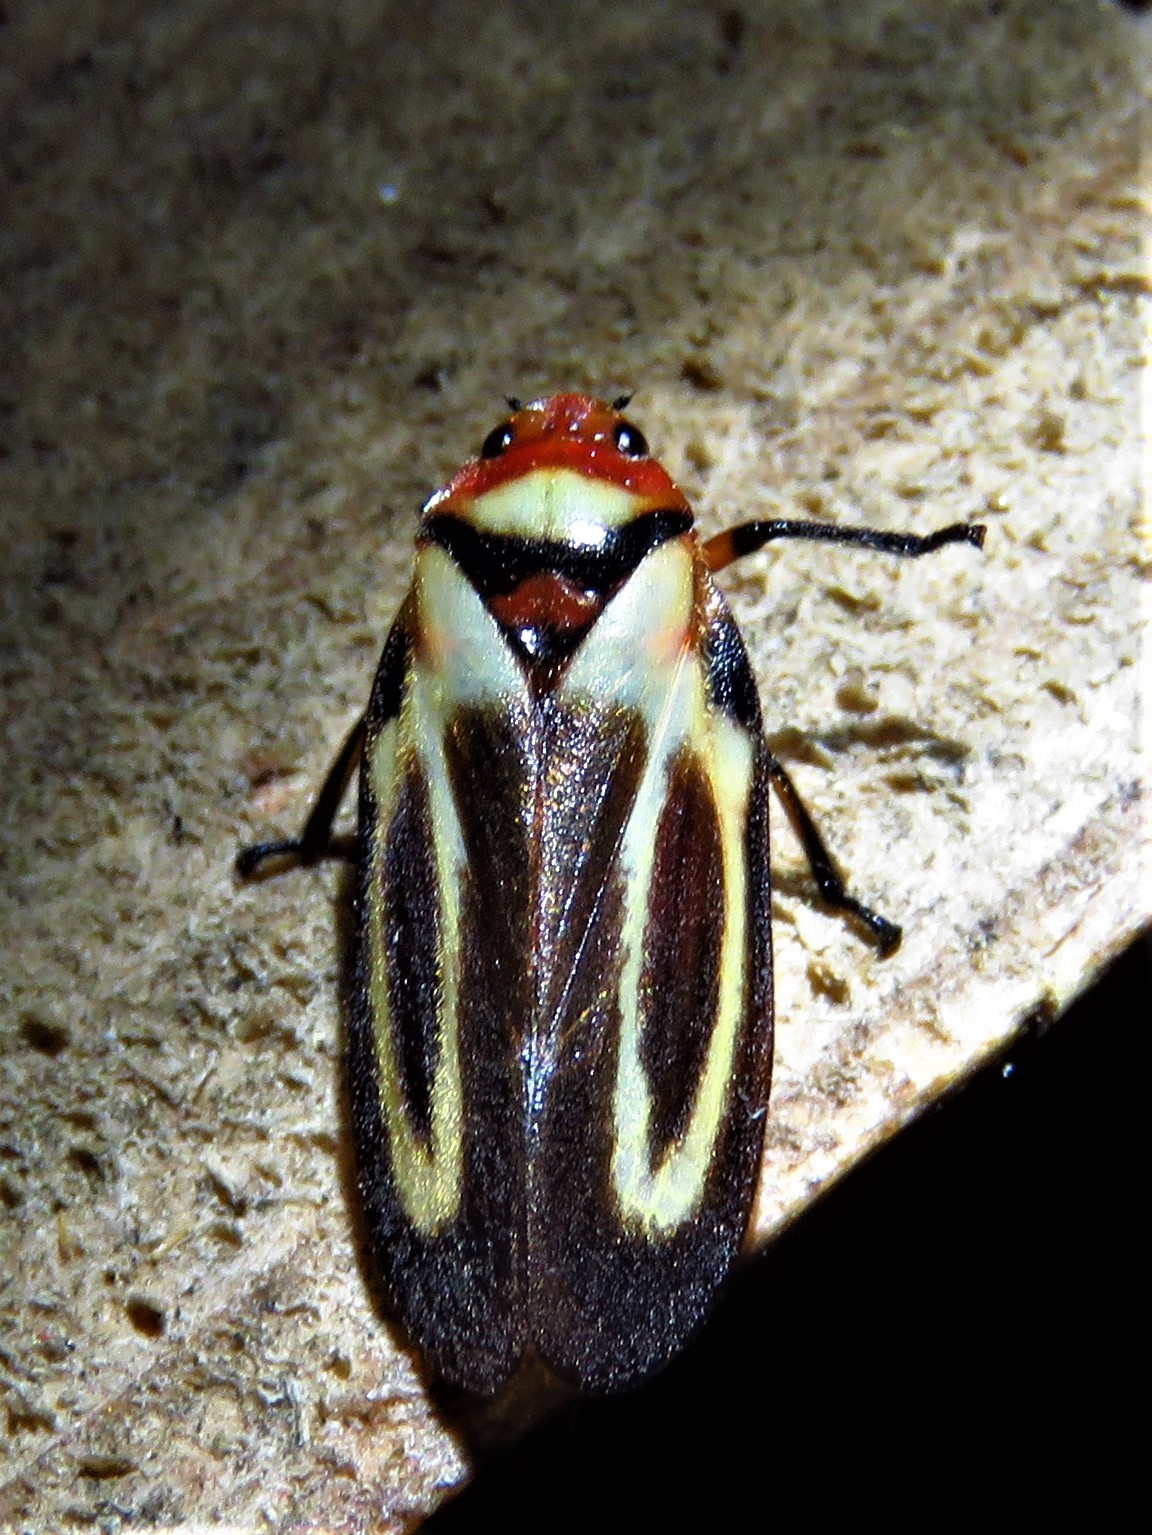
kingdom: Animalia
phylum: Arthropoda
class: Insecta
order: Hemiptera
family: Cercopidae
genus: Ocoaxo
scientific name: Ocoaxo
